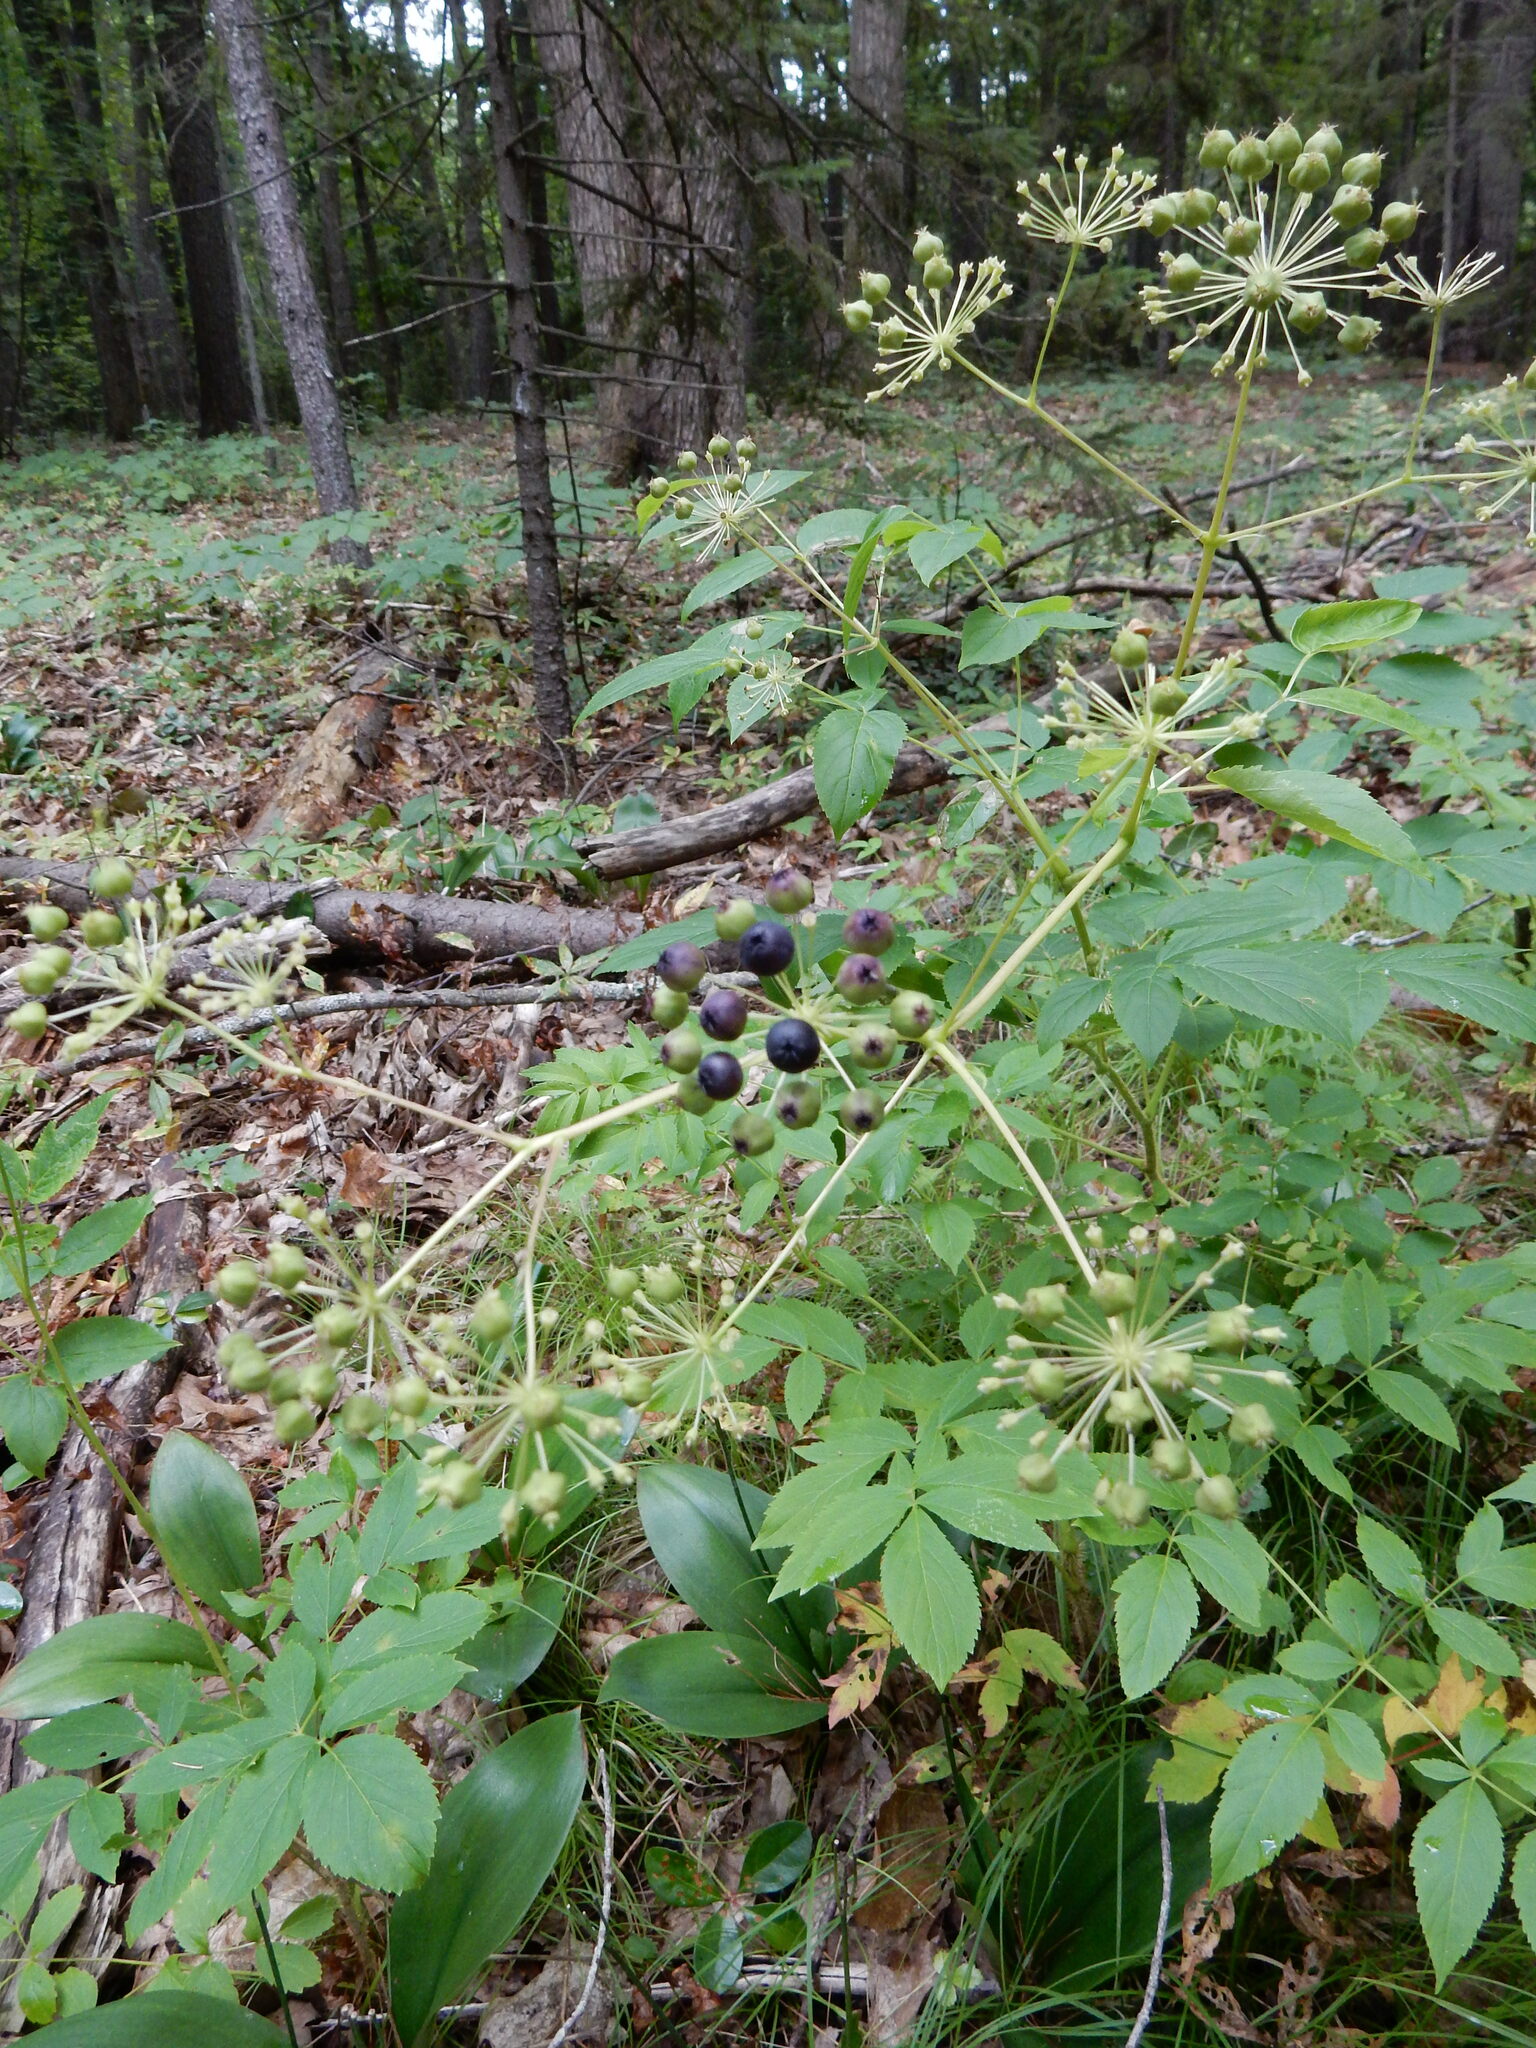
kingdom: Plantae
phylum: Tracheophyta
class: Magnoliopsida
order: Apiales
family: Araliaceae
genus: Aralia
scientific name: Aralia hispida
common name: Bristly sarsaparilla
